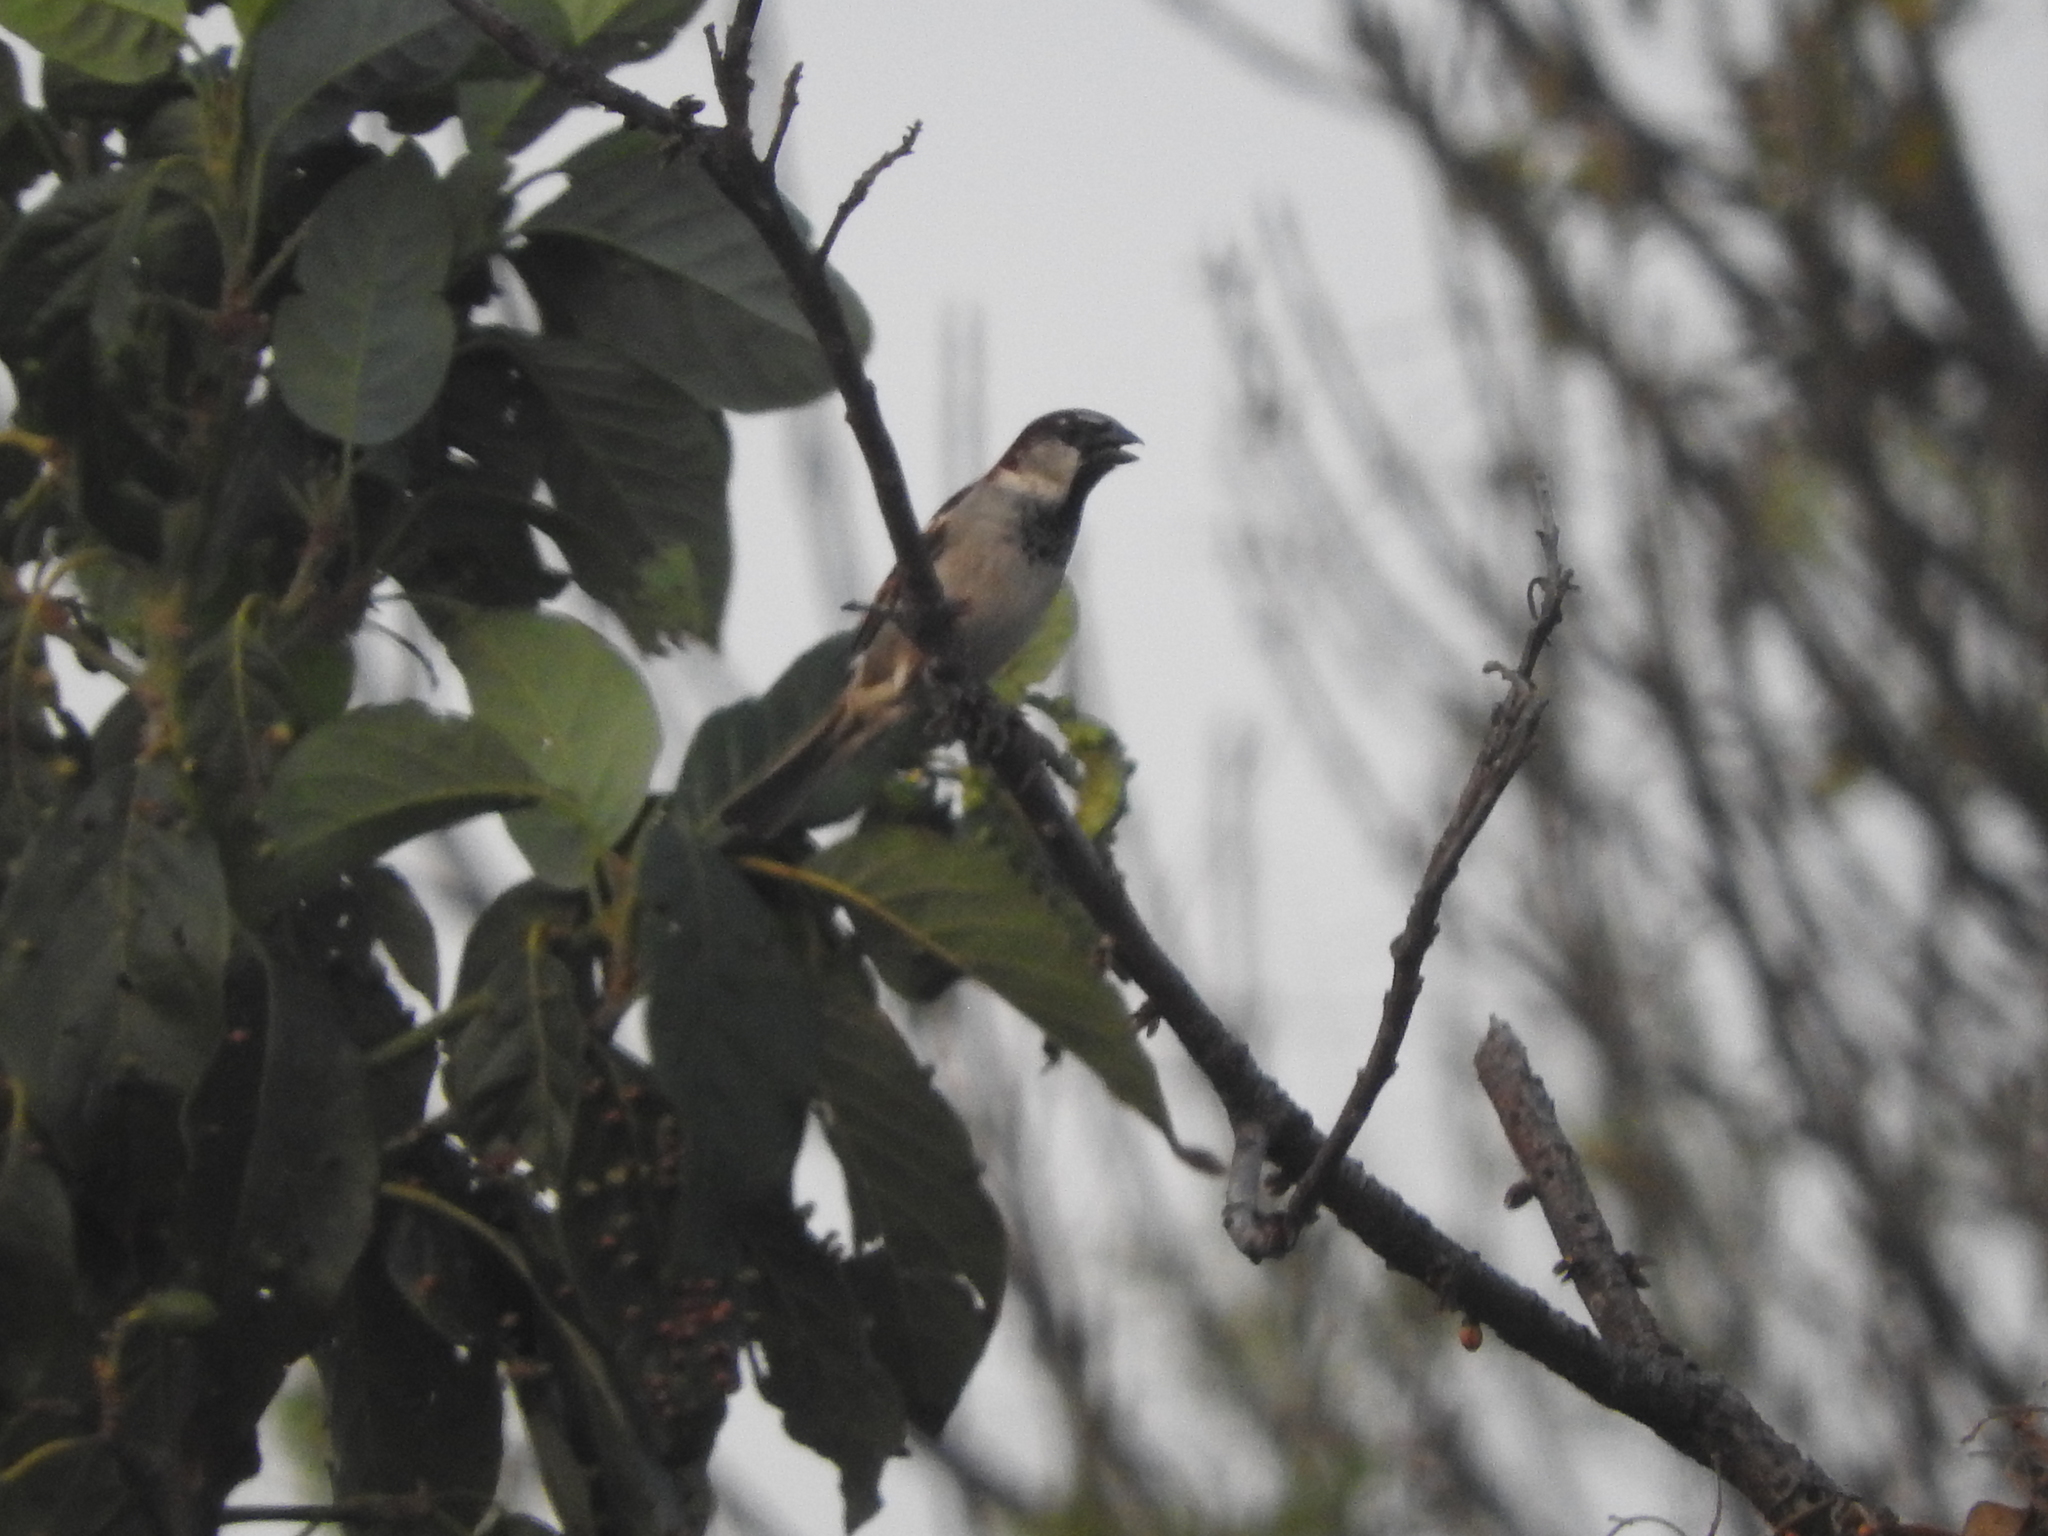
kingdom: Animalia
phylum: Chordata
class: Aves
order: Passeriformes
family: Passeridae
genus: Passer
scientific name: Passer domesticus
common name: House sparrow
